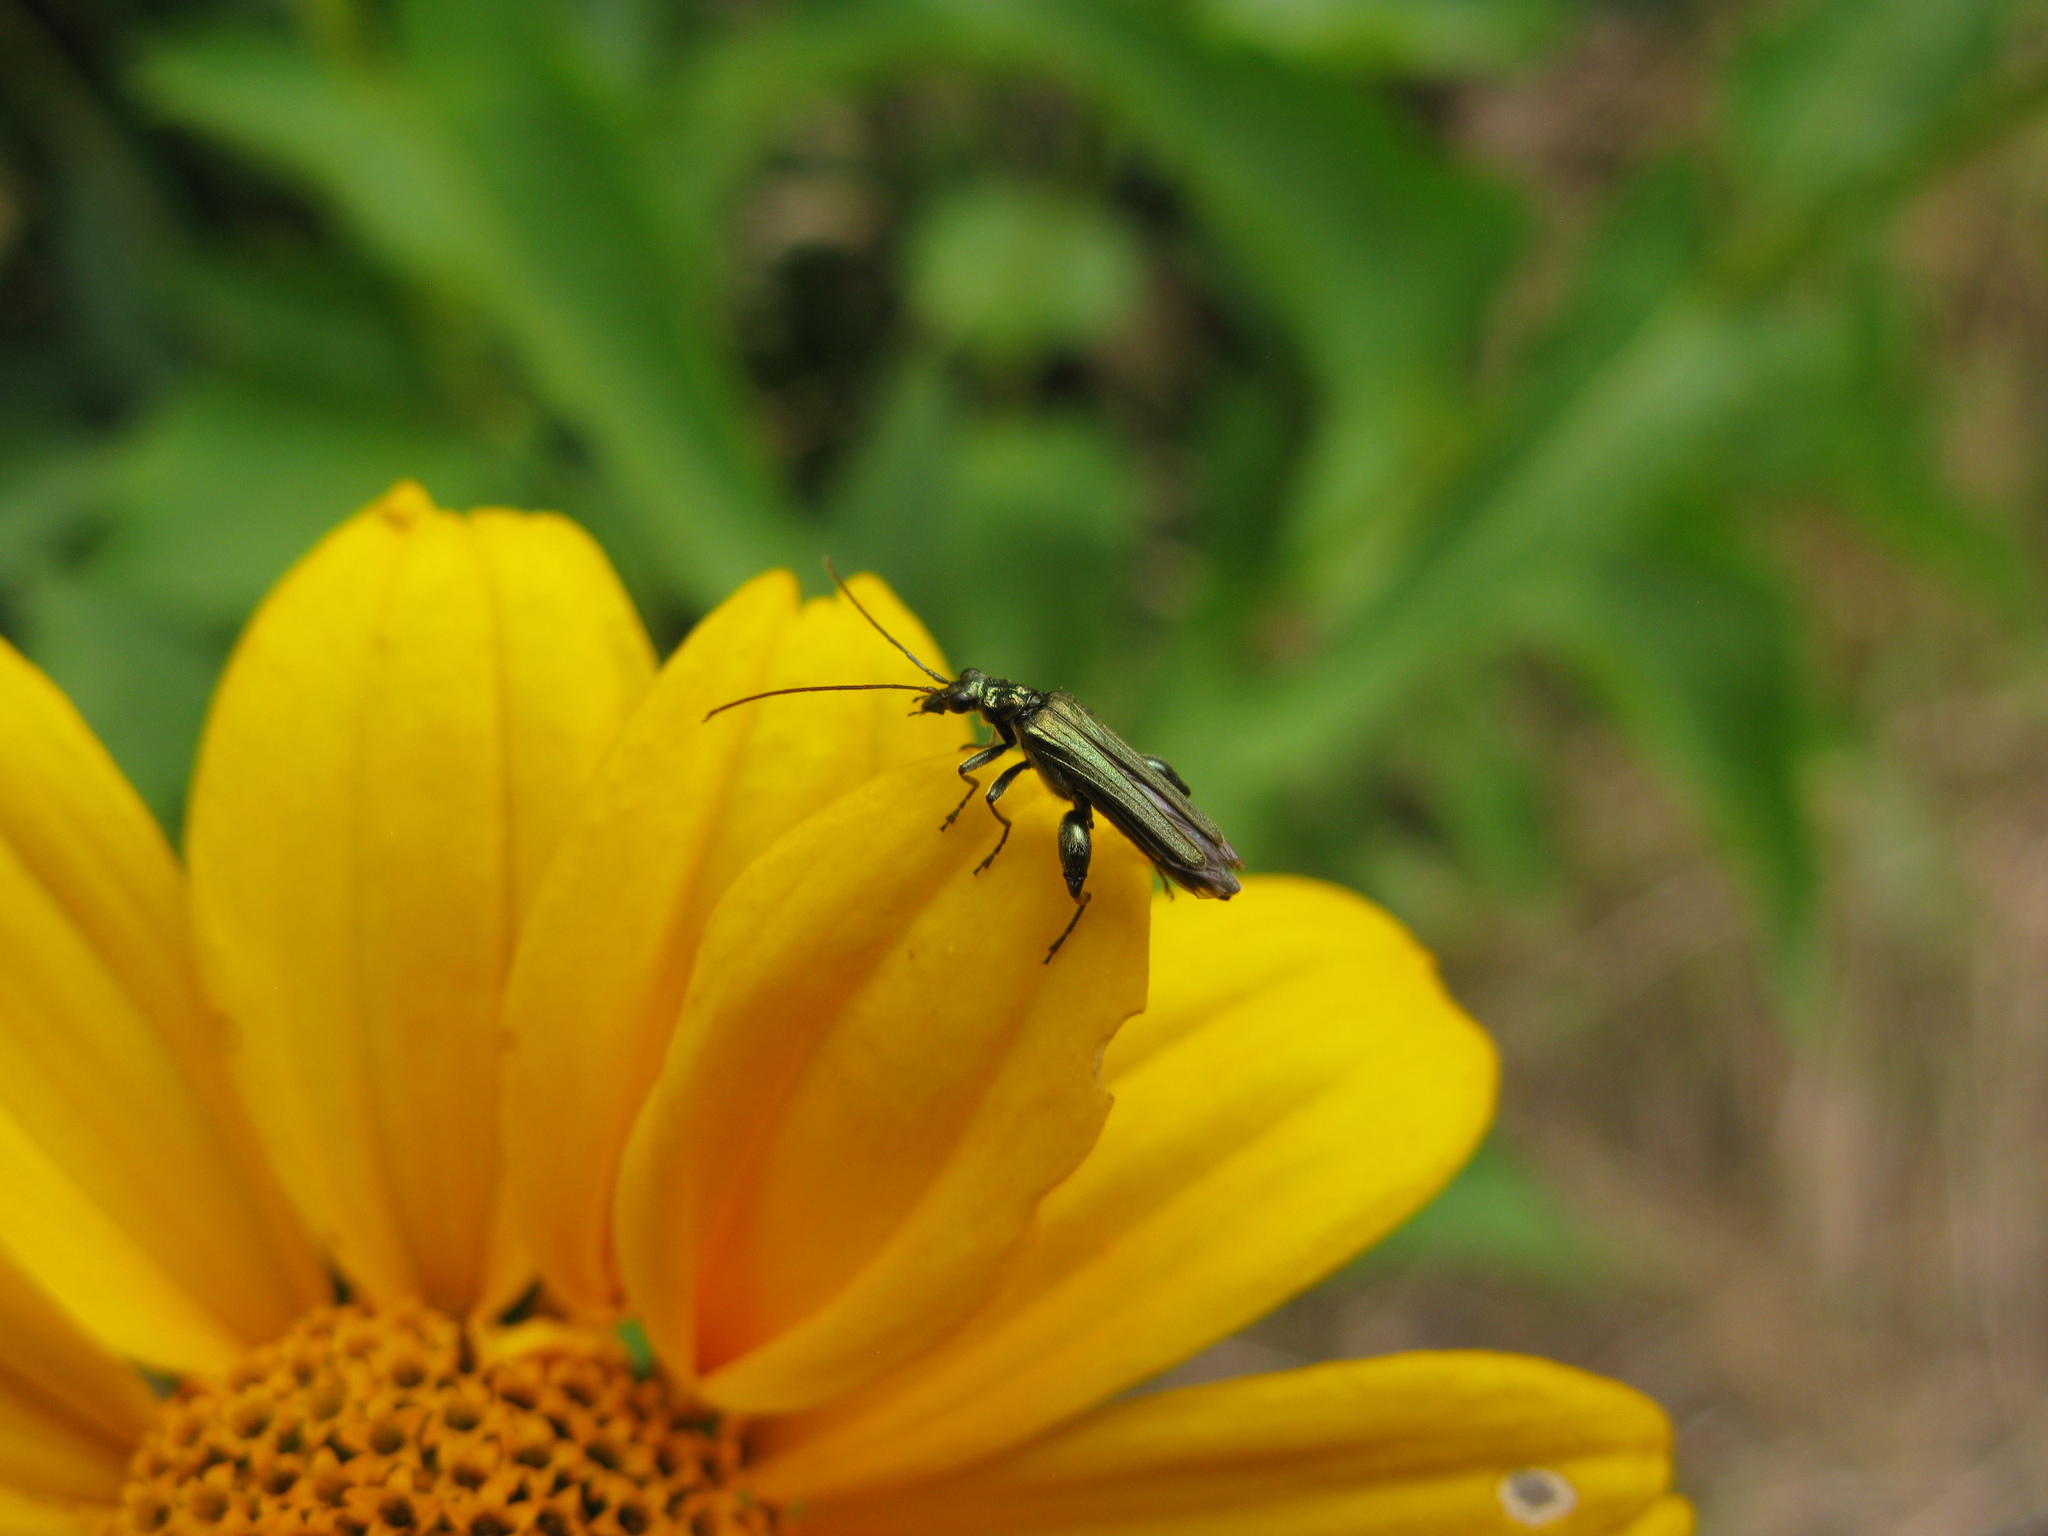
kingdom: Animalia
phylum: Arthropoda
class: Insecta
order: Coleoptera
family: Oedemeridae
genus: Oedemera
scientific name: Oedemera virescens
